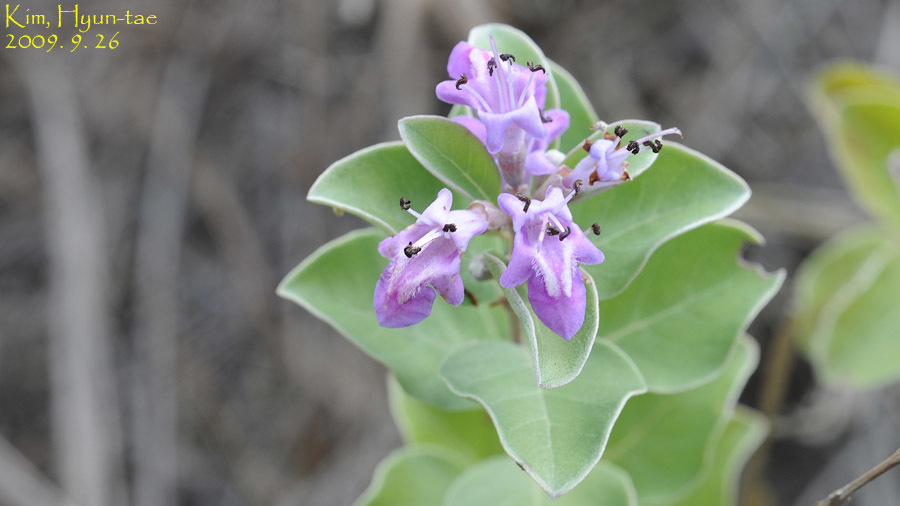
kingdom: Plantae
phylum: Tracheophyta
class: Magnoliopsida
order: Lamiales
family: Lamiaceae
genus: Vitex
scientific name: Vitex rotundifolia
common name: Beach vitex
